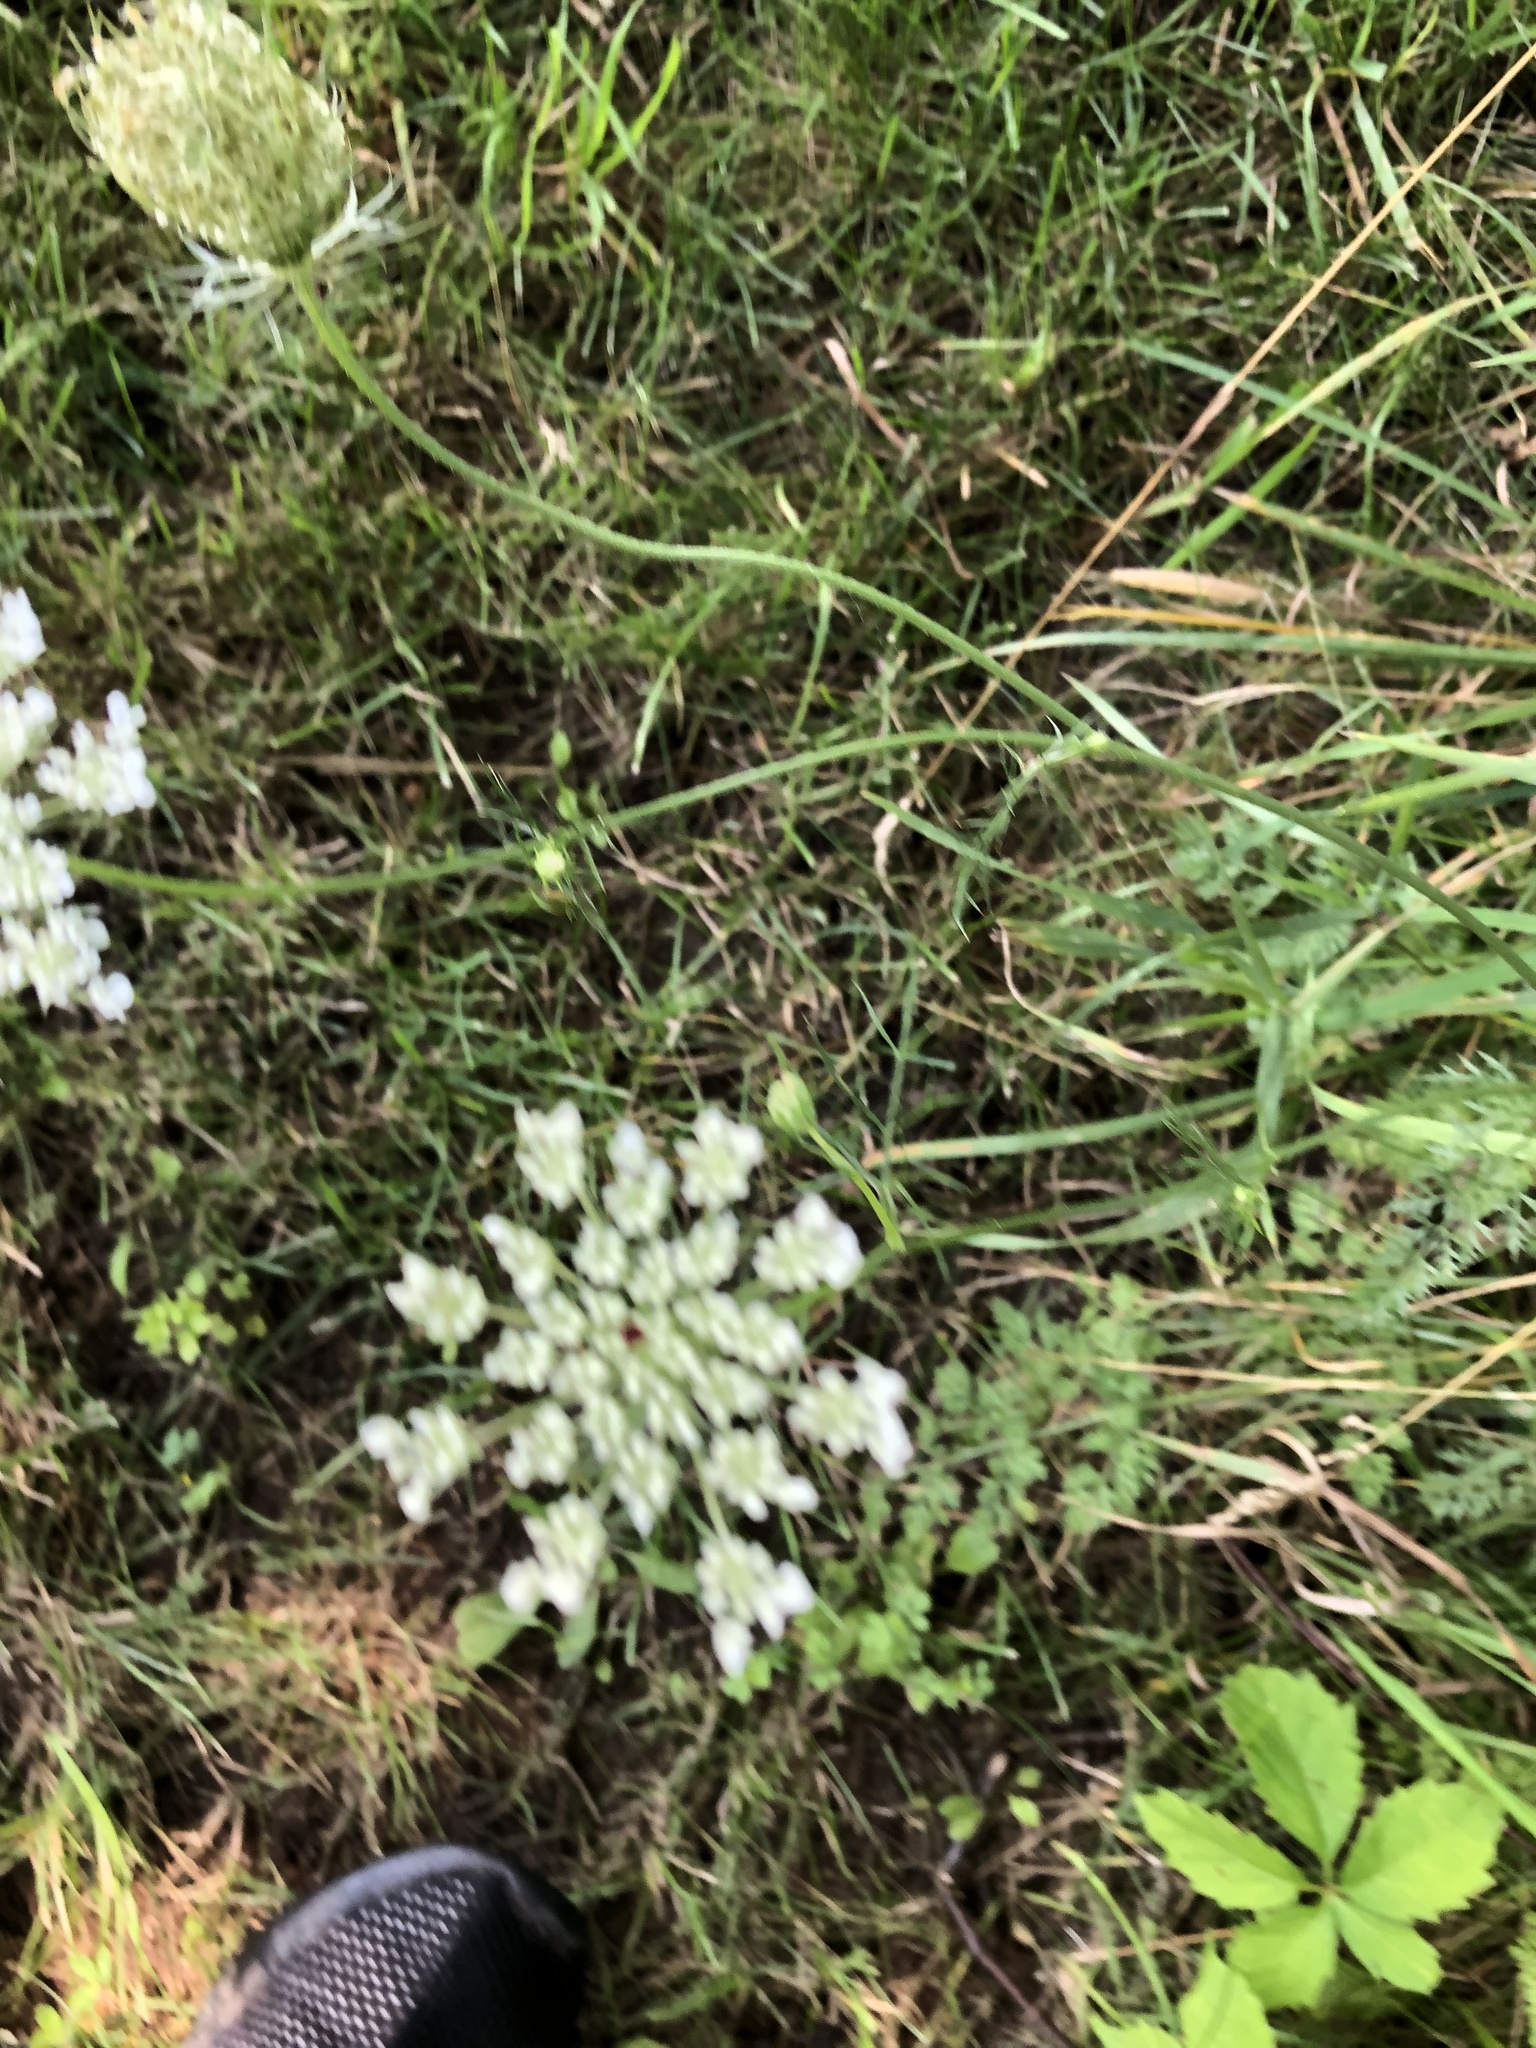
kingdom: Plantae
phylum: Tracheophyta
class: Magnoliopsida
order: Apiales
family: Apiaceae
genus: Daucus
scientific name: Daucus carota
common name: Wild carrot
